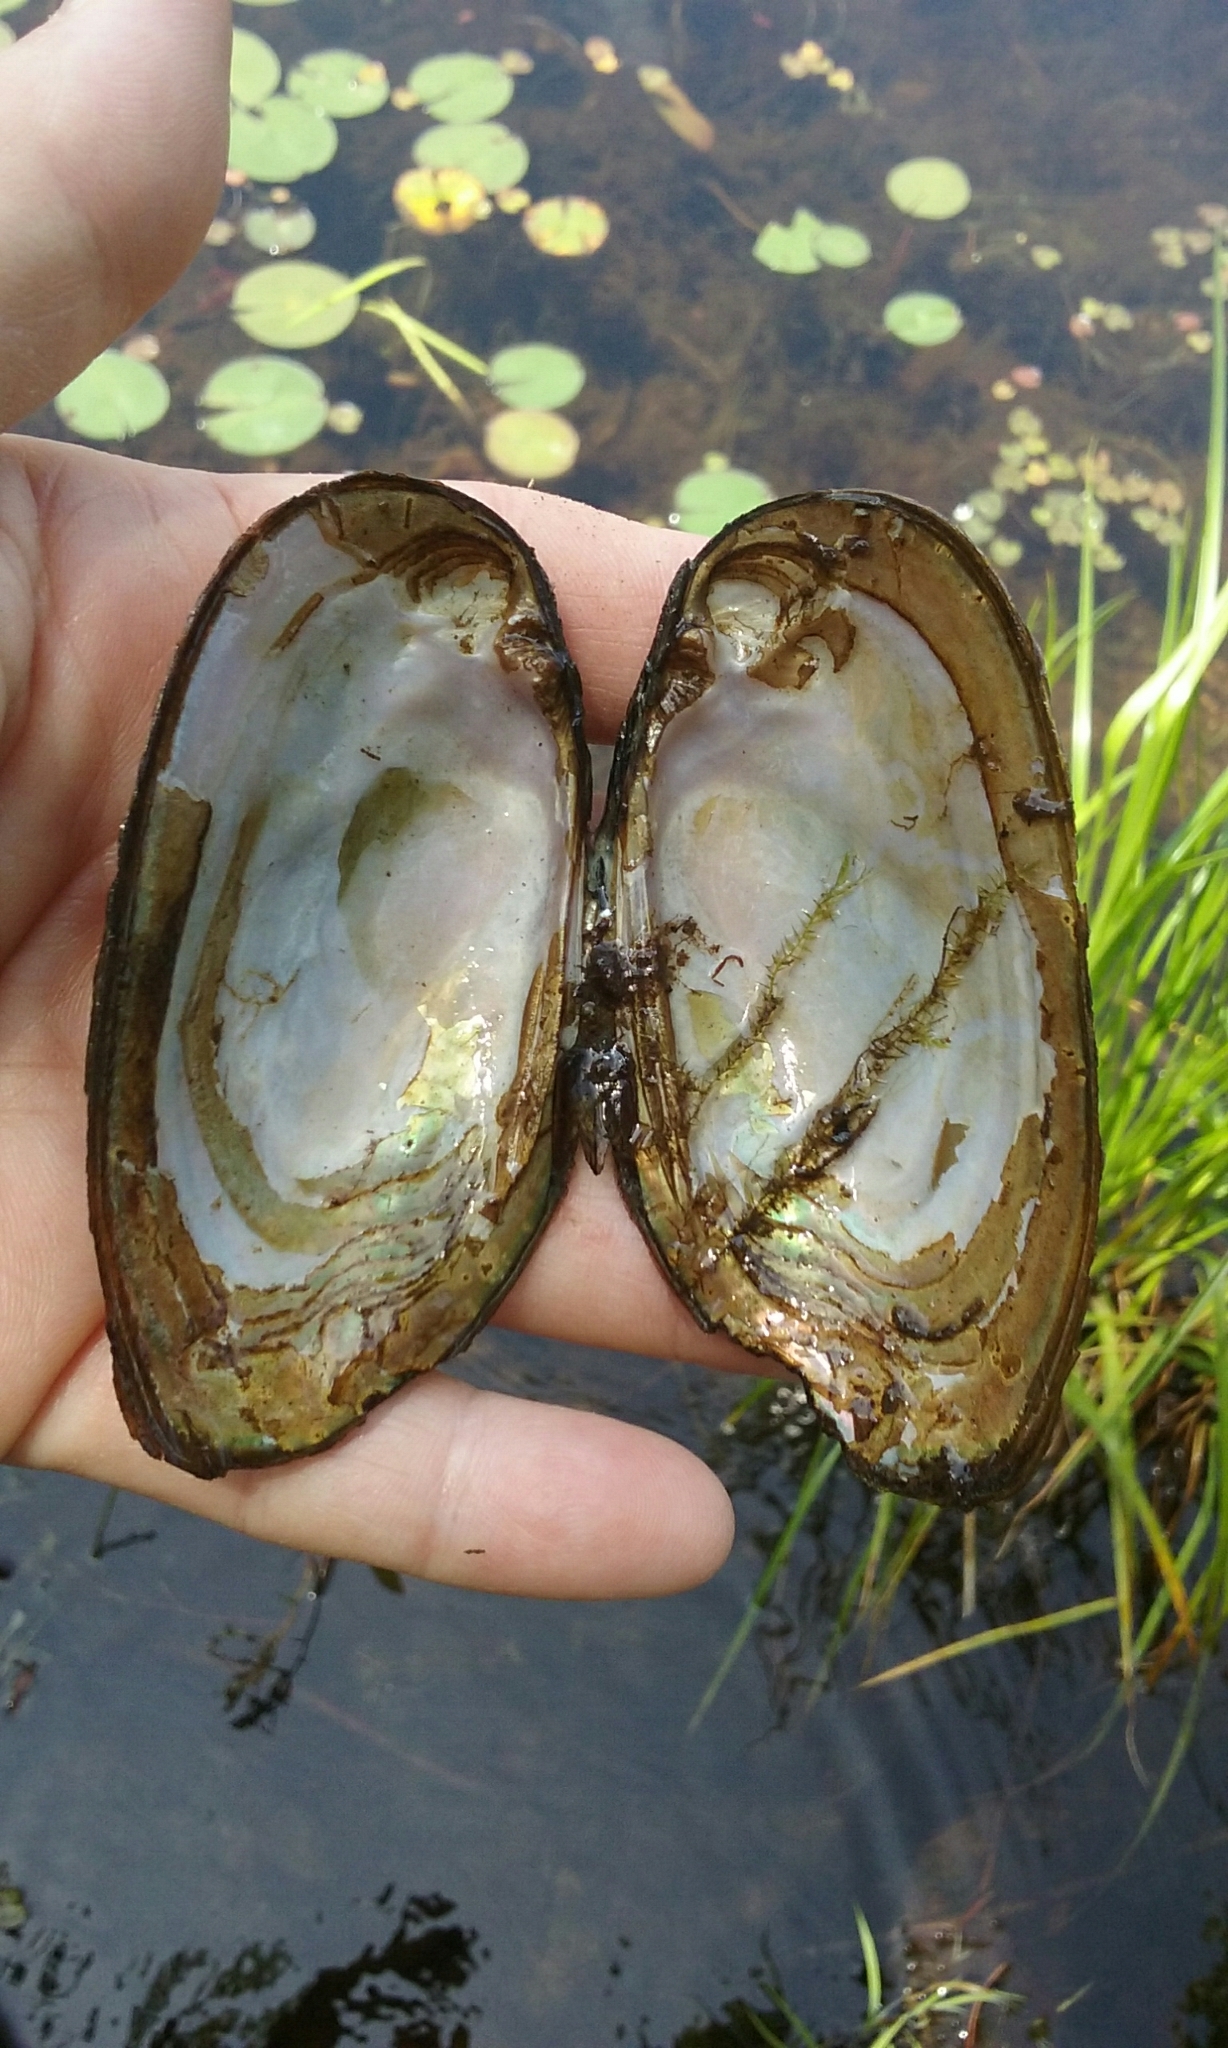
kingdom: Animalia
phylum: Mollusca
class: Bivalvia
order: Unionida
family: Unionidae
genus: Elliptio
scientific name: Elliptio complanata
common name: Eastern elliptio
